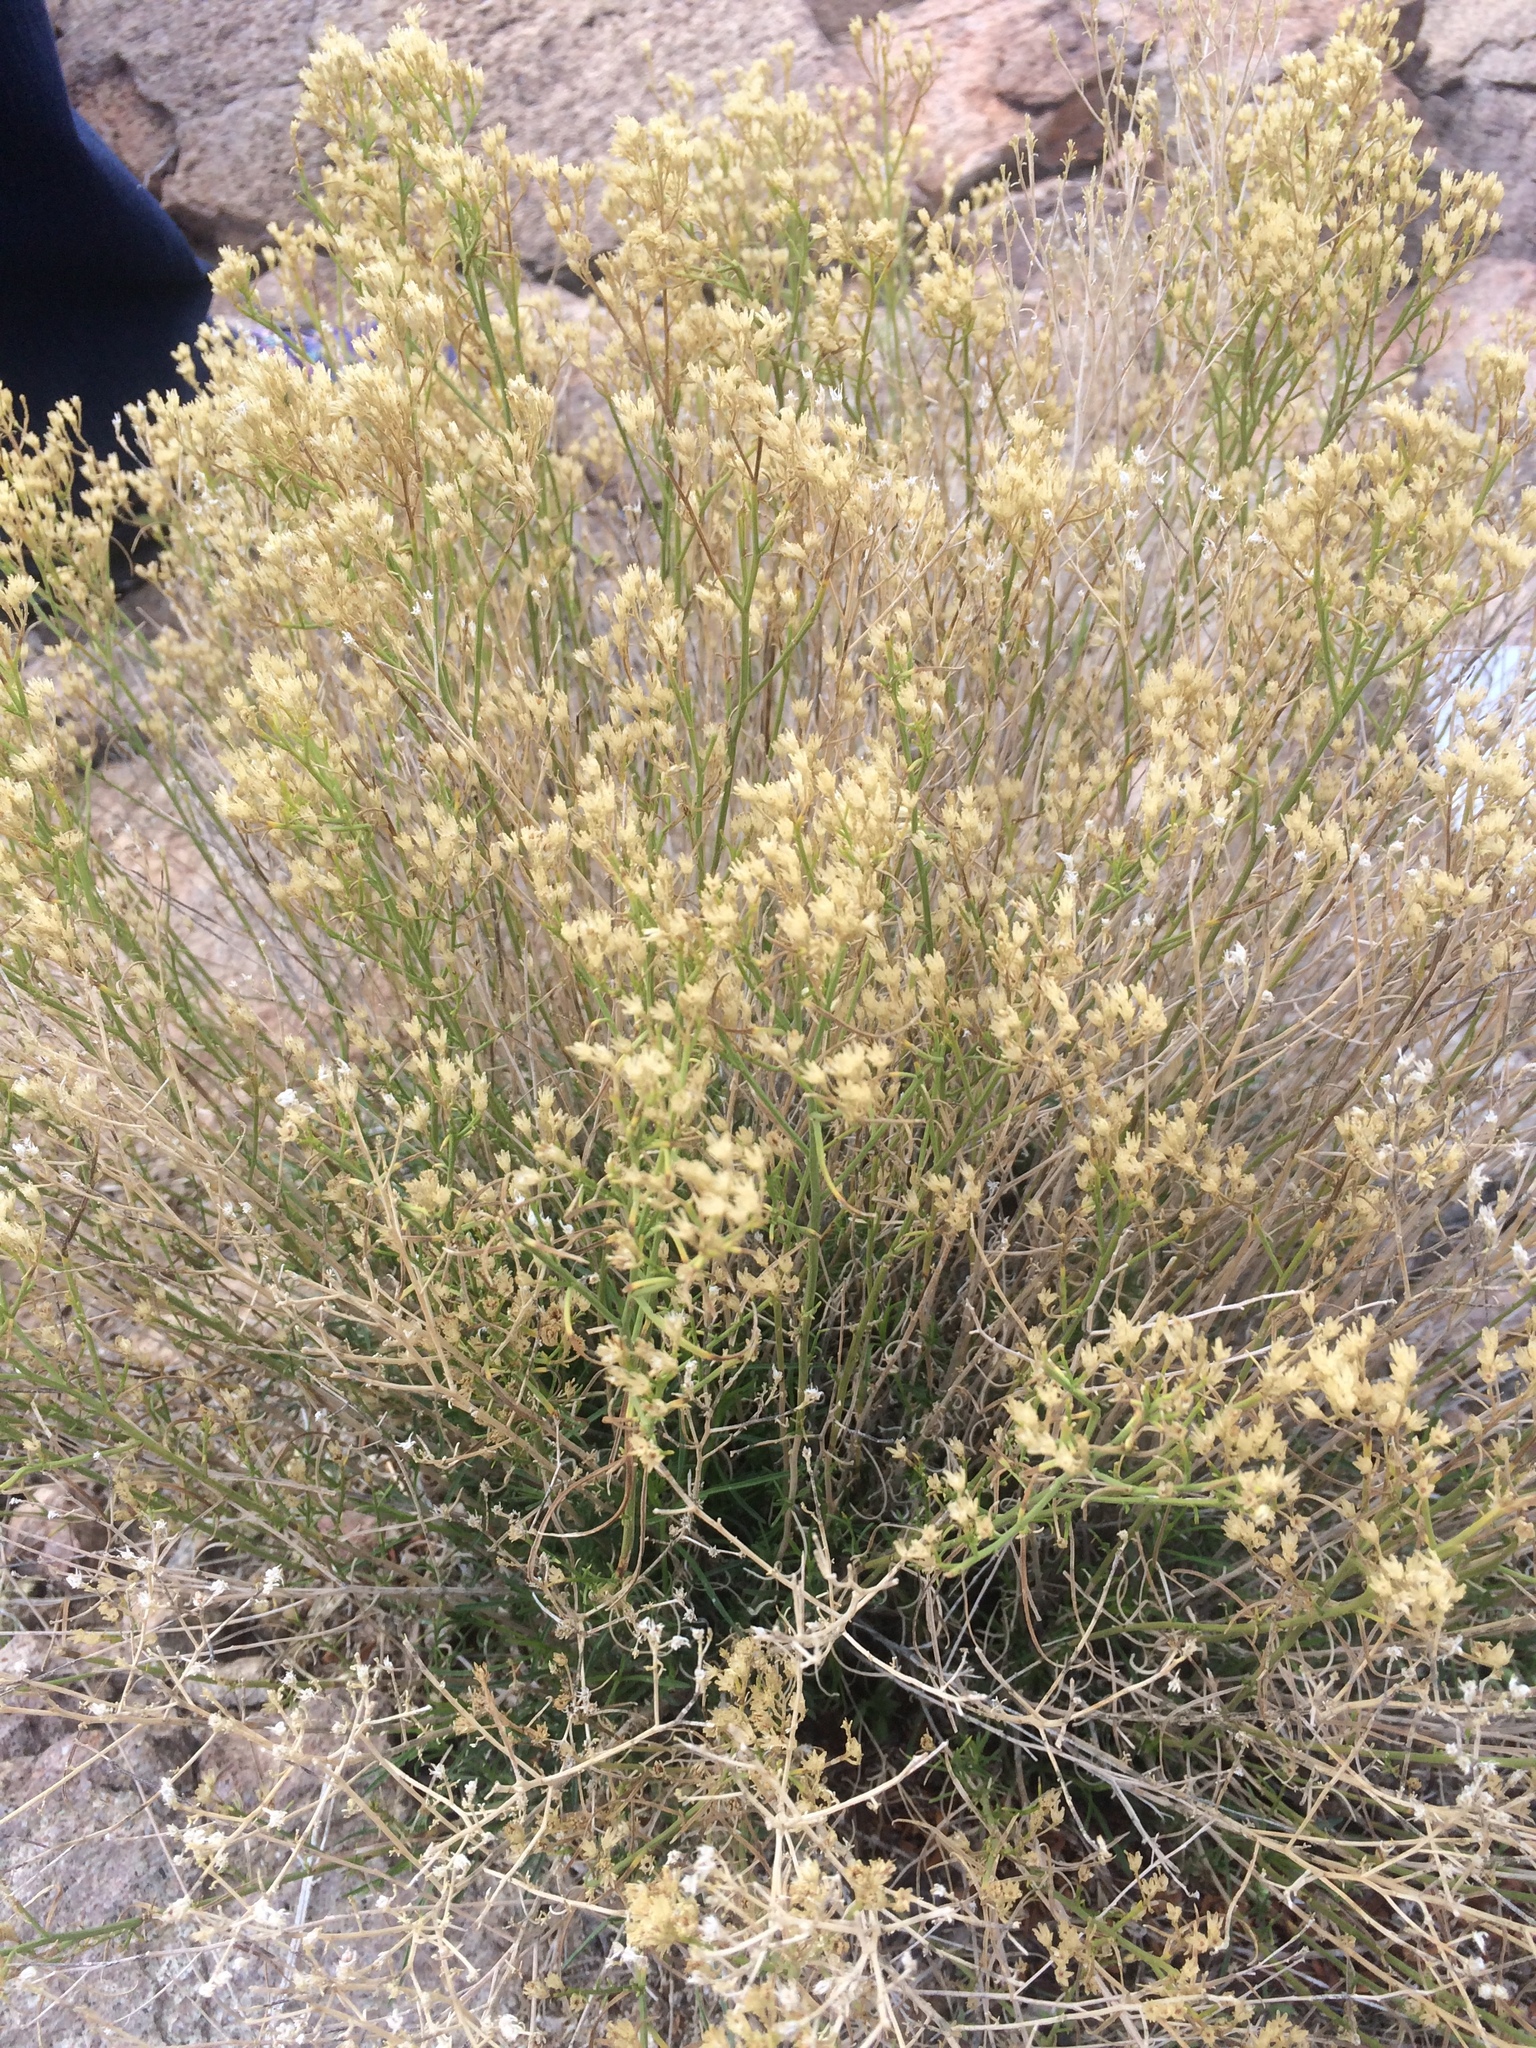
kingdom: Plantae
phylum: Tracheophyta
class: Magnoliopsida
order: Asterales
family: Asteraceae
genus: Gutierrezia
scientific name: Gutierrezia sarothrae
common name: Broom snakeweed
